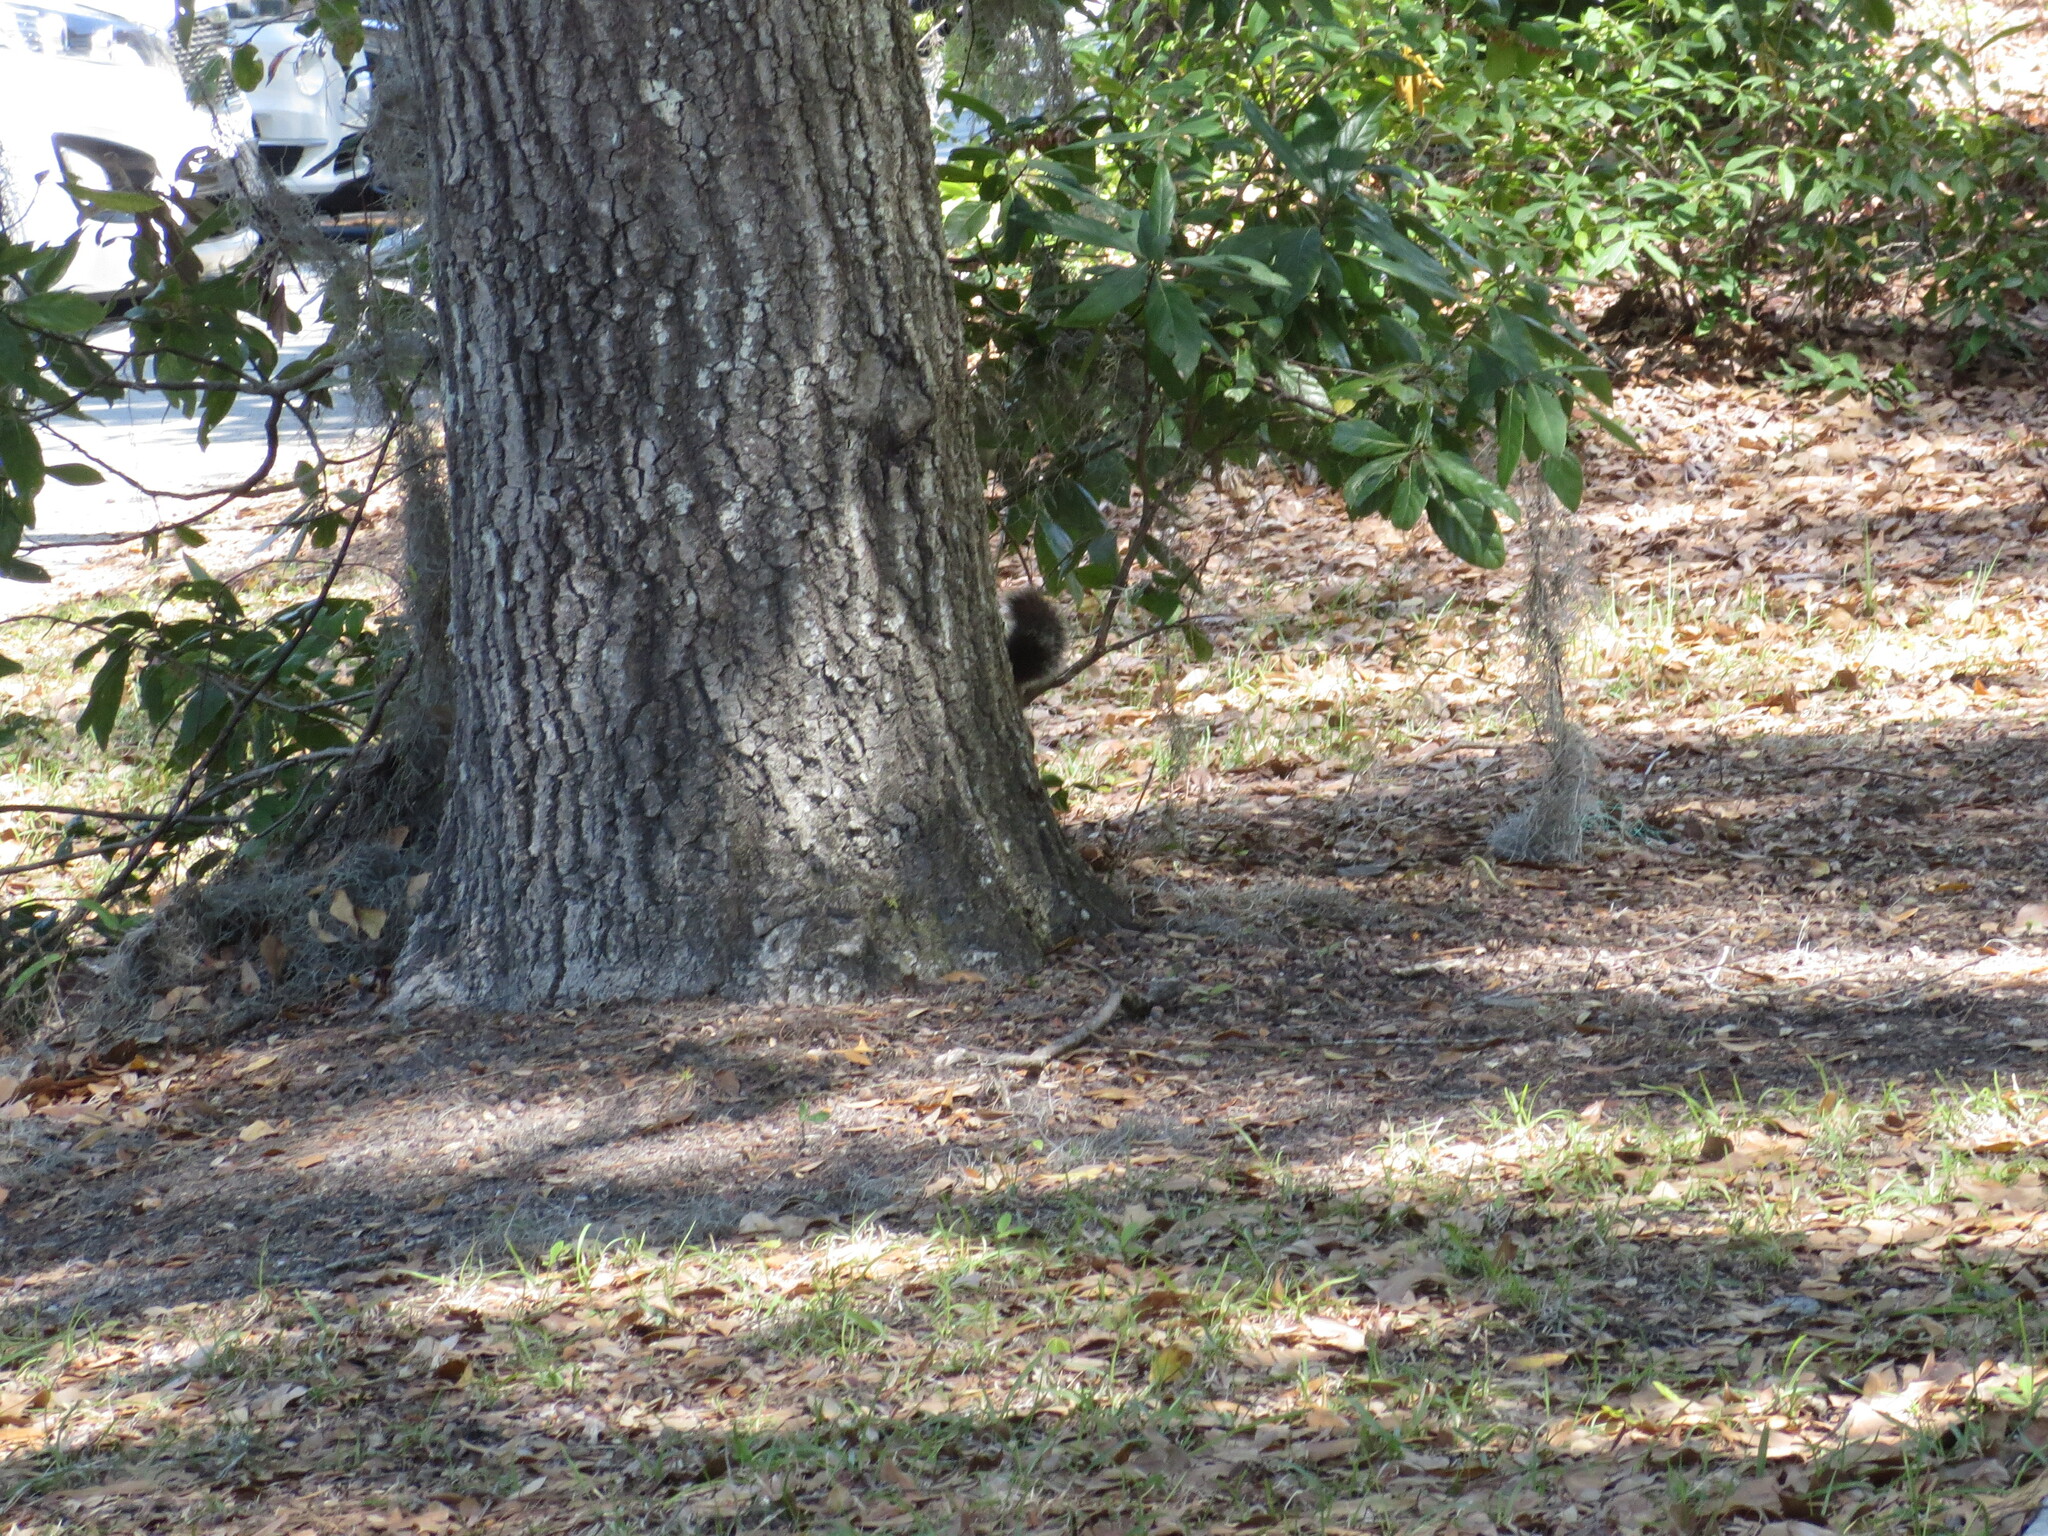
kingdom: Animalia
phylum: Chordata
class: Mammalia
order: Rodentia
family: Sciuridae
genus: Sciurus
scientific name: Sciurus carolinensis
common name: Eastern gray squirrel
